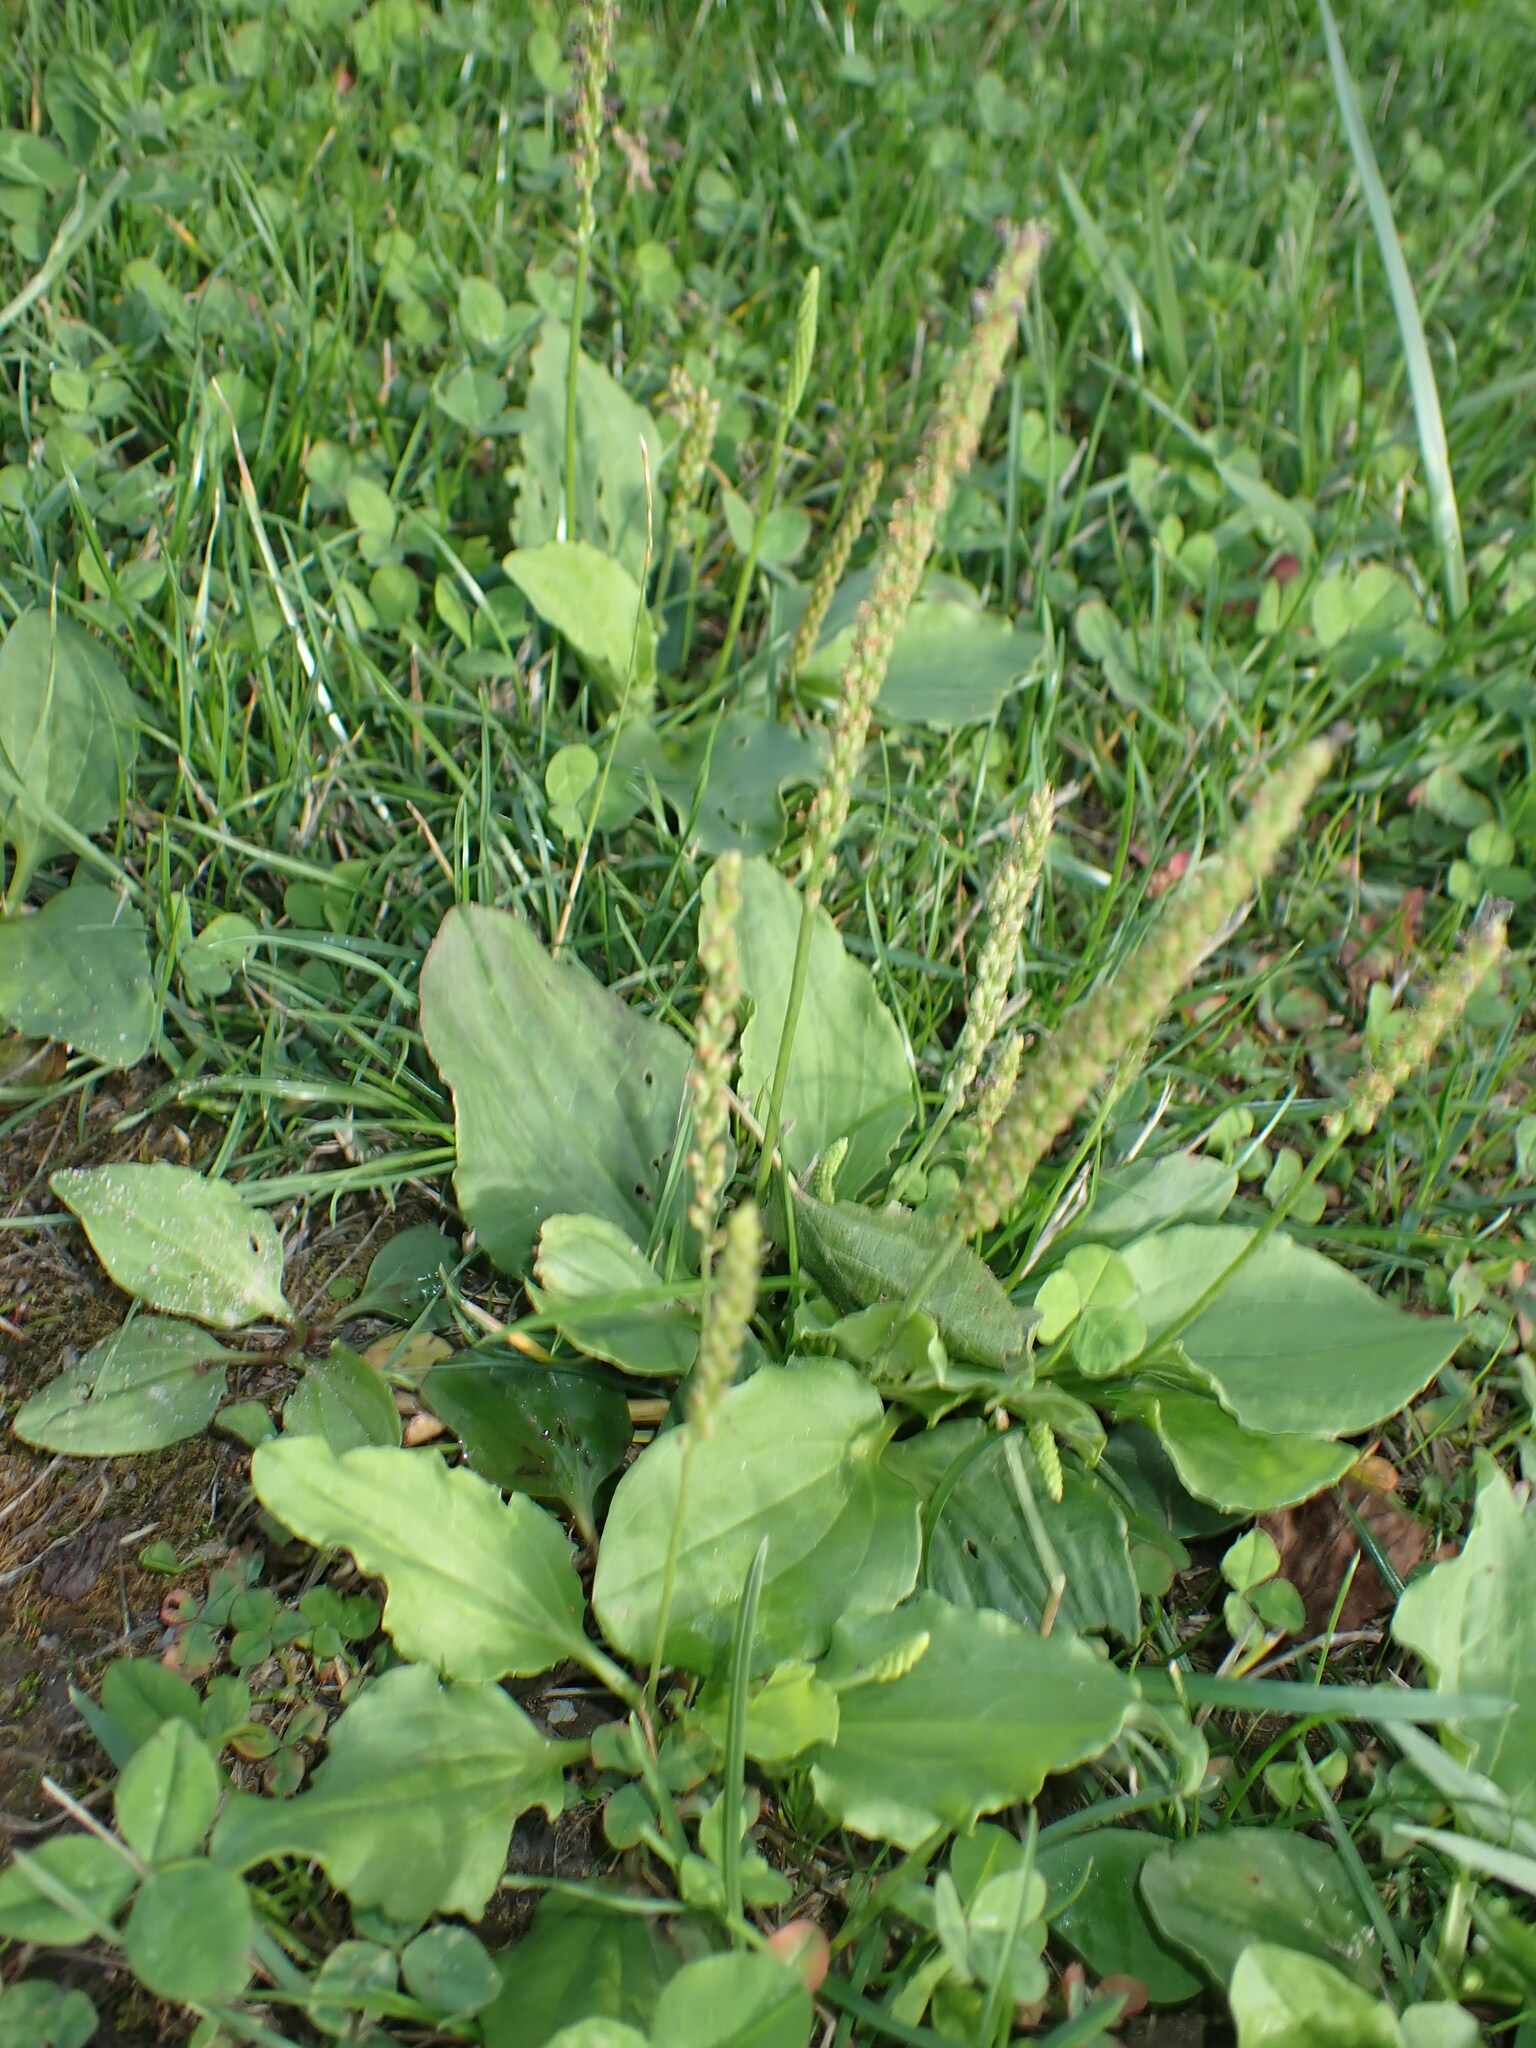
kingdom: Plantae
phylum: Tracheophyta
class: Magnoliopsida
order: Lamiales
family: Plantaginaceae
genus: Plantago
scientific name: Plantago major
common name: Common plantain
